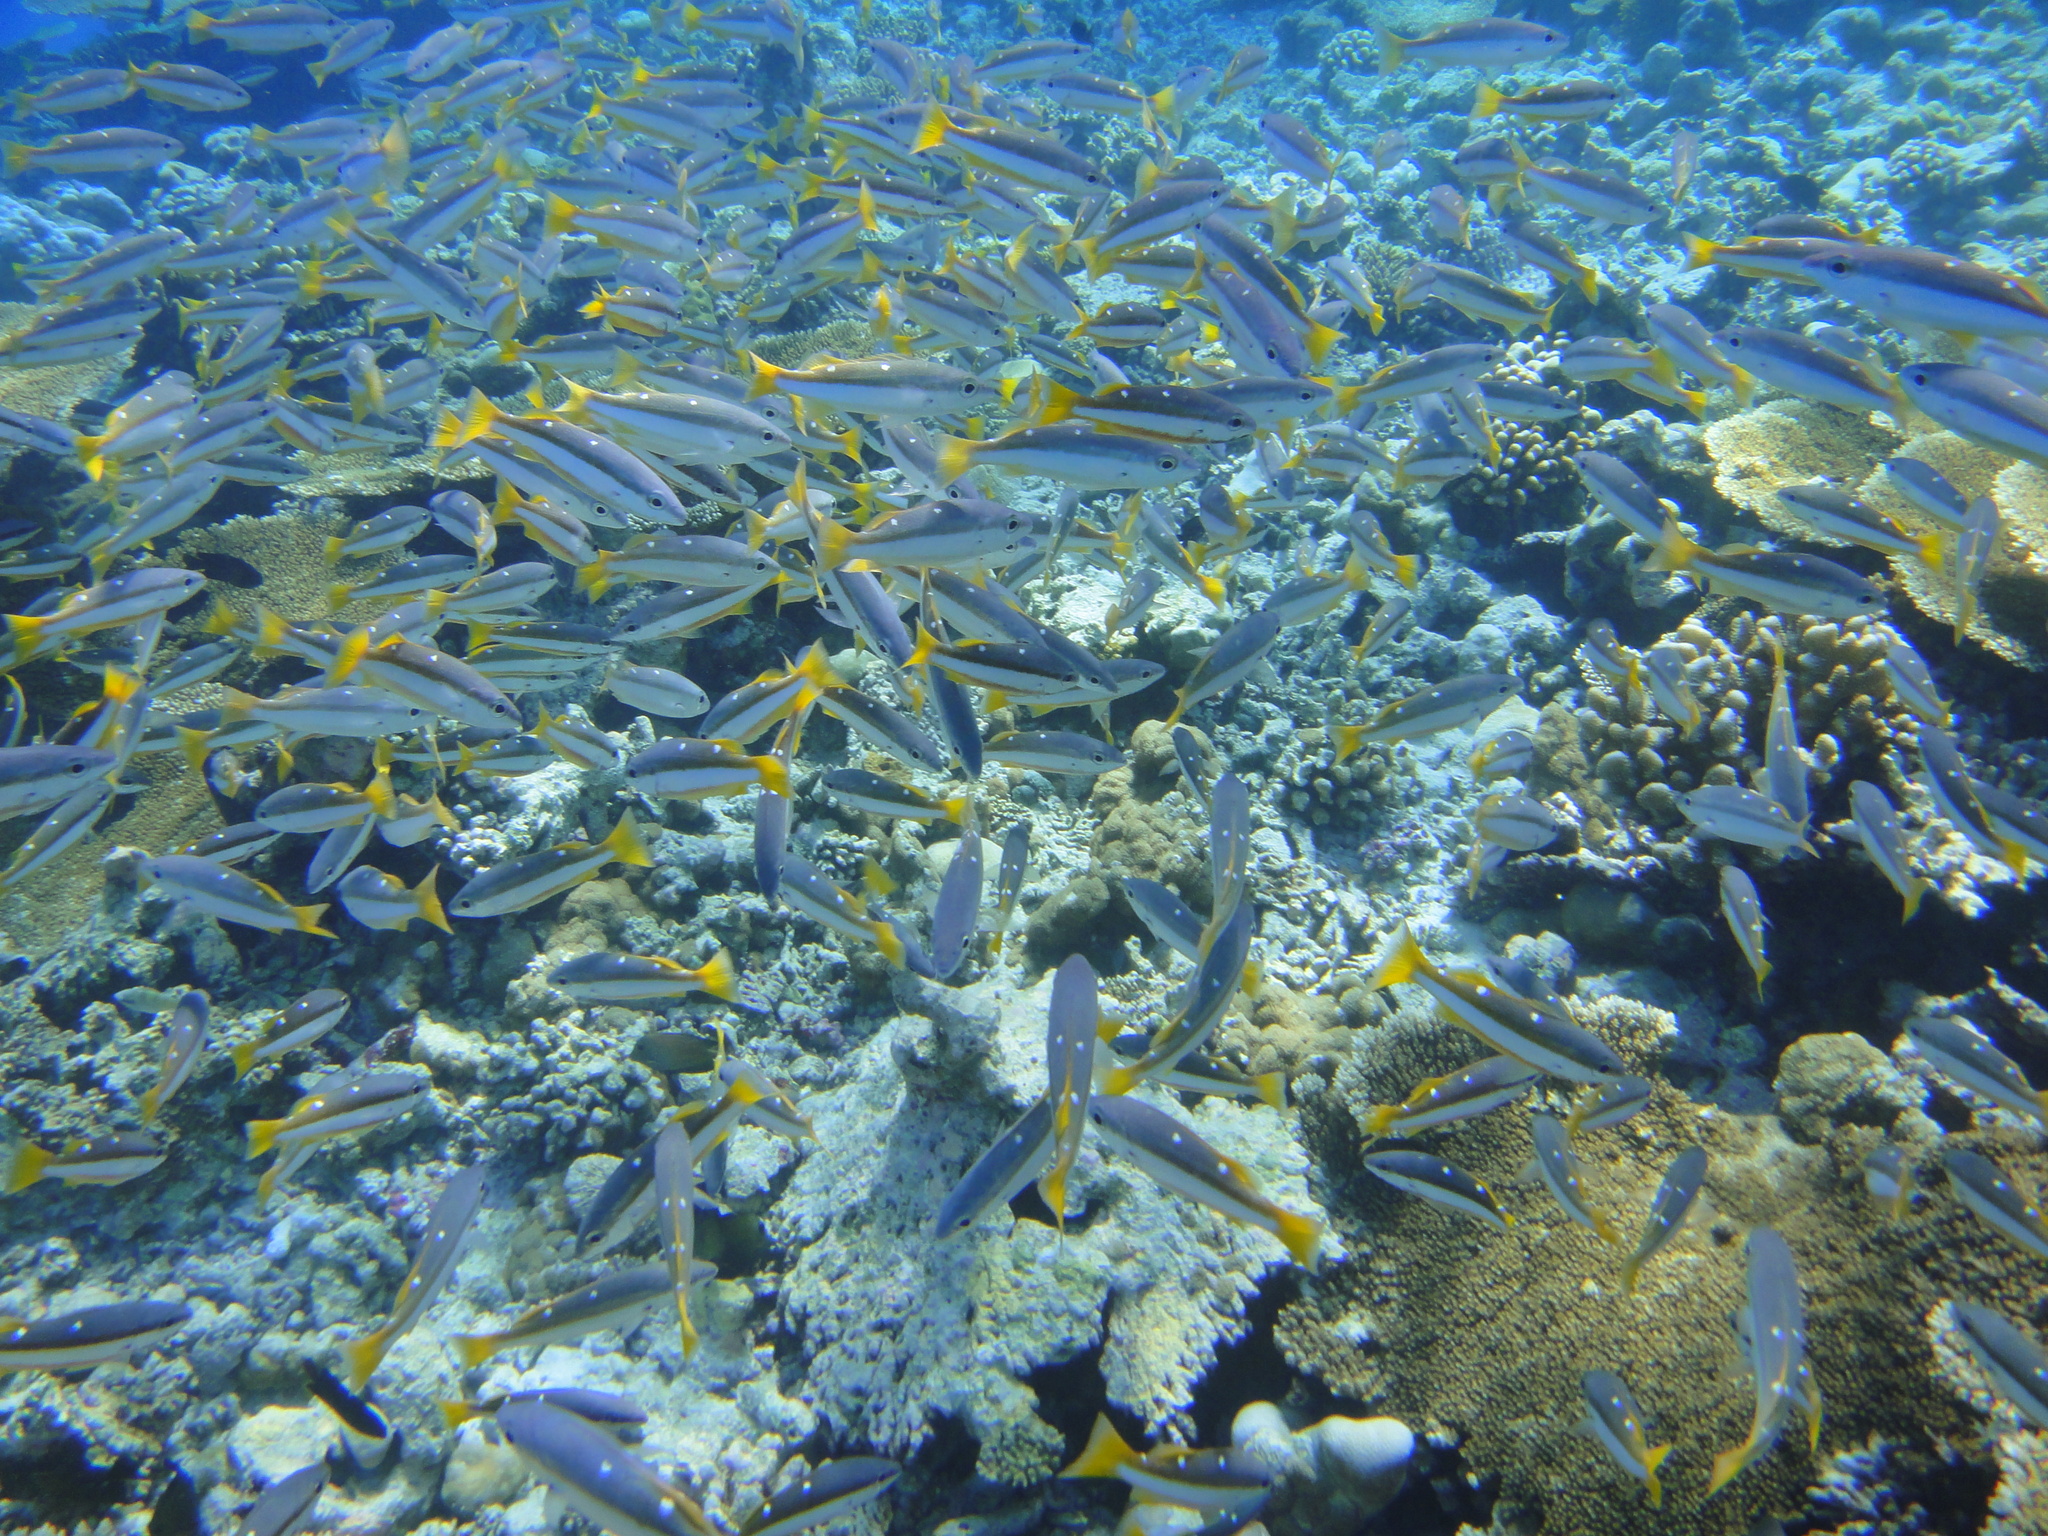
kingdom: Animalia
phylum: Chordata
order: Perciformes
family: Lutjanidae
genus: Lutjanus
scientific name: Lutjanus biguttatus
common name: Two-spot snapper
